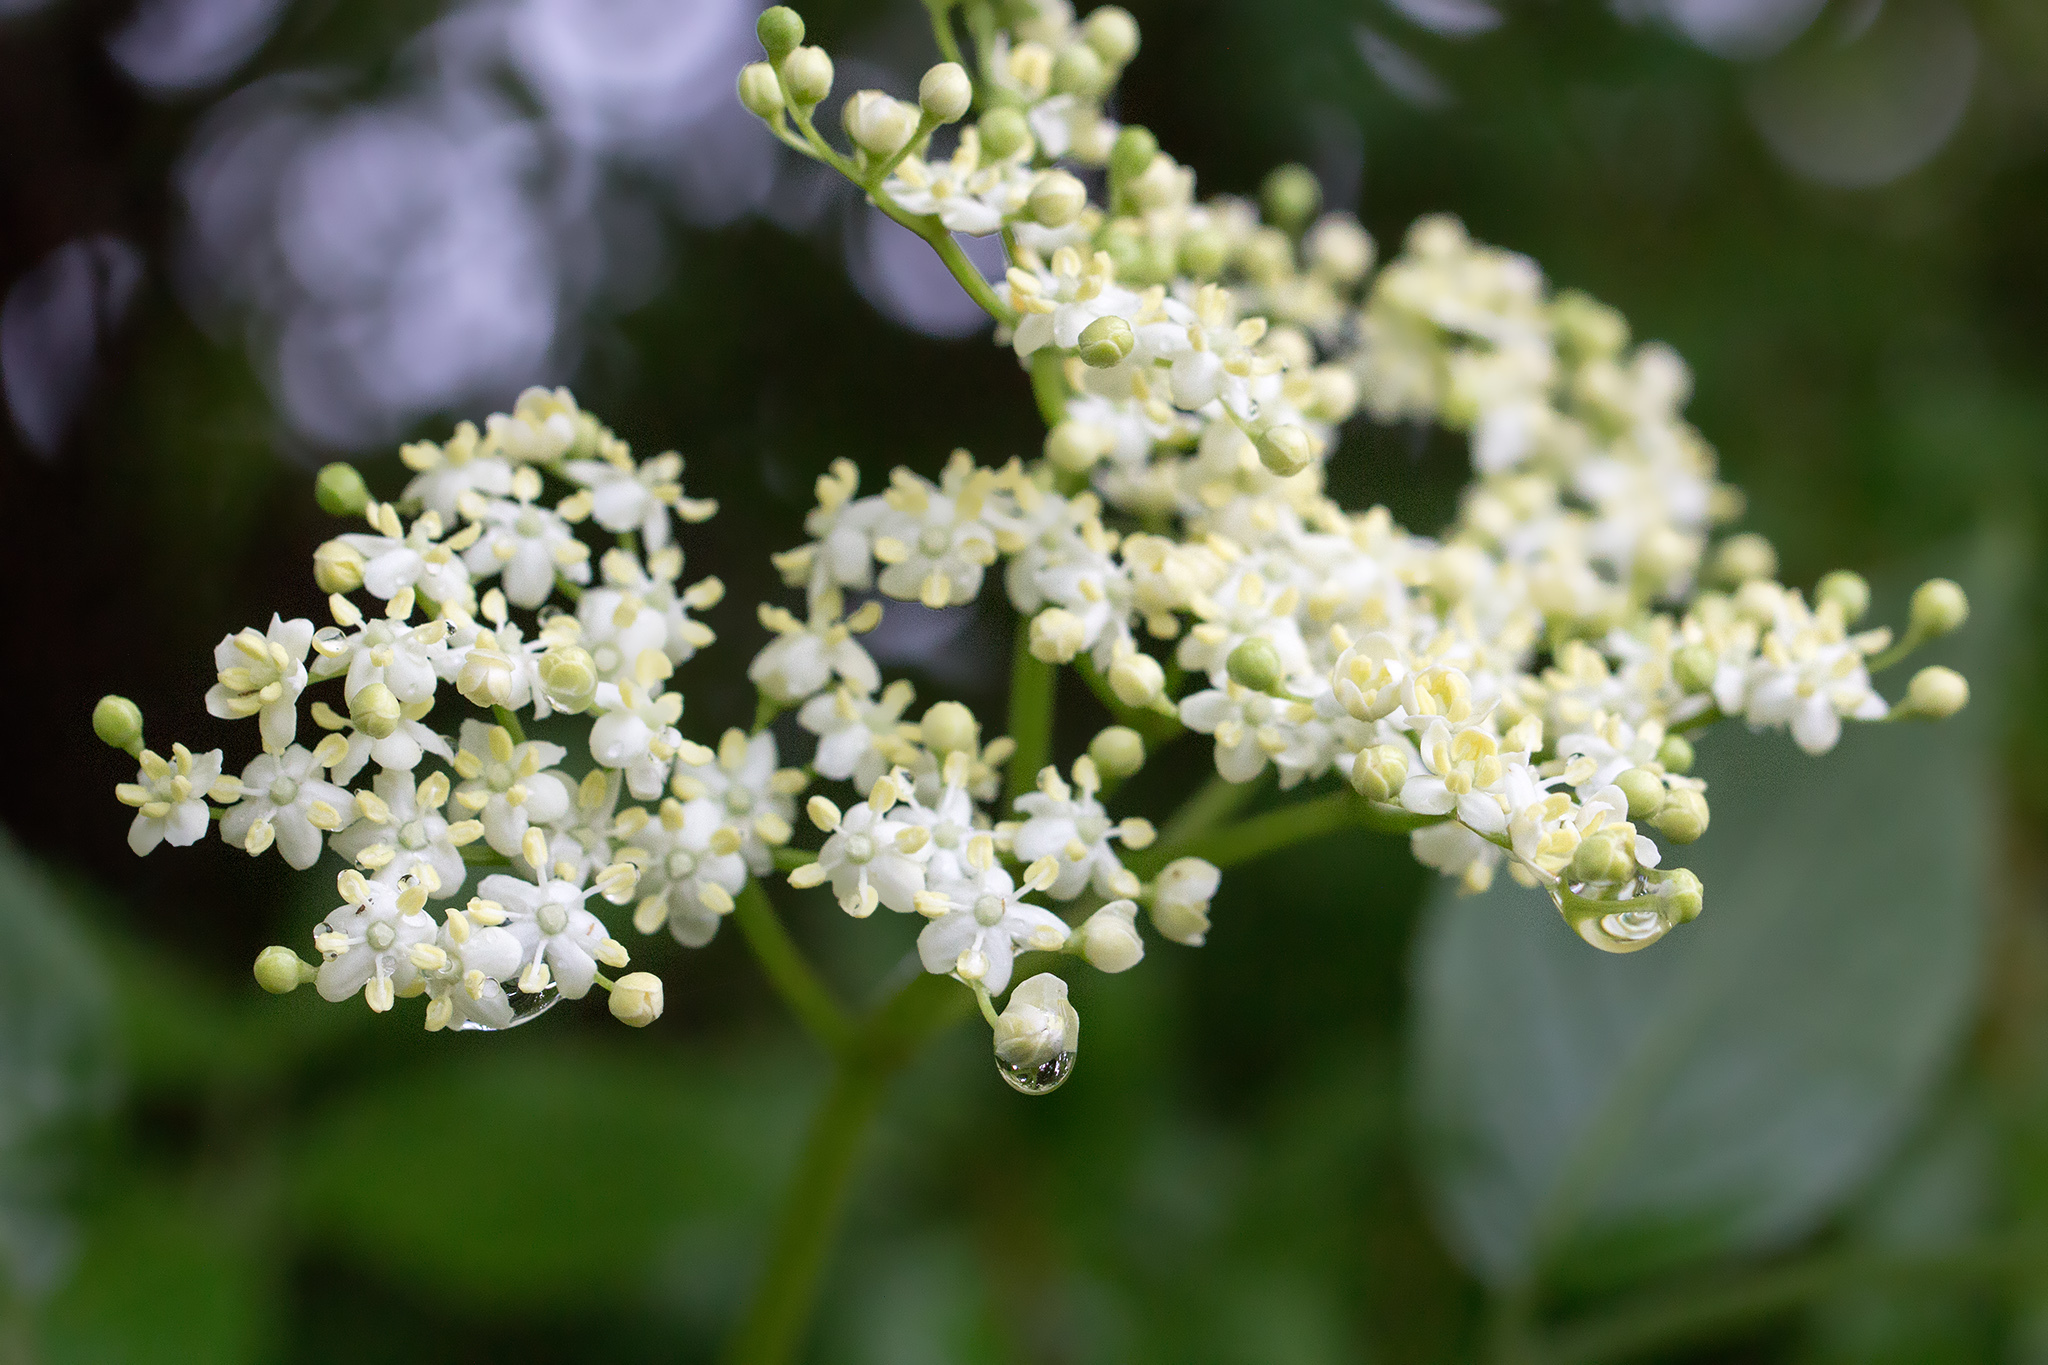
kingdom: Plantae
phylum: Tracheophyta
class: Magnoliopsida
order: Dipsacales
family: Viburnaceae
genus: Sambucus
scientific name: Sambucus nigra
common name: Elder
